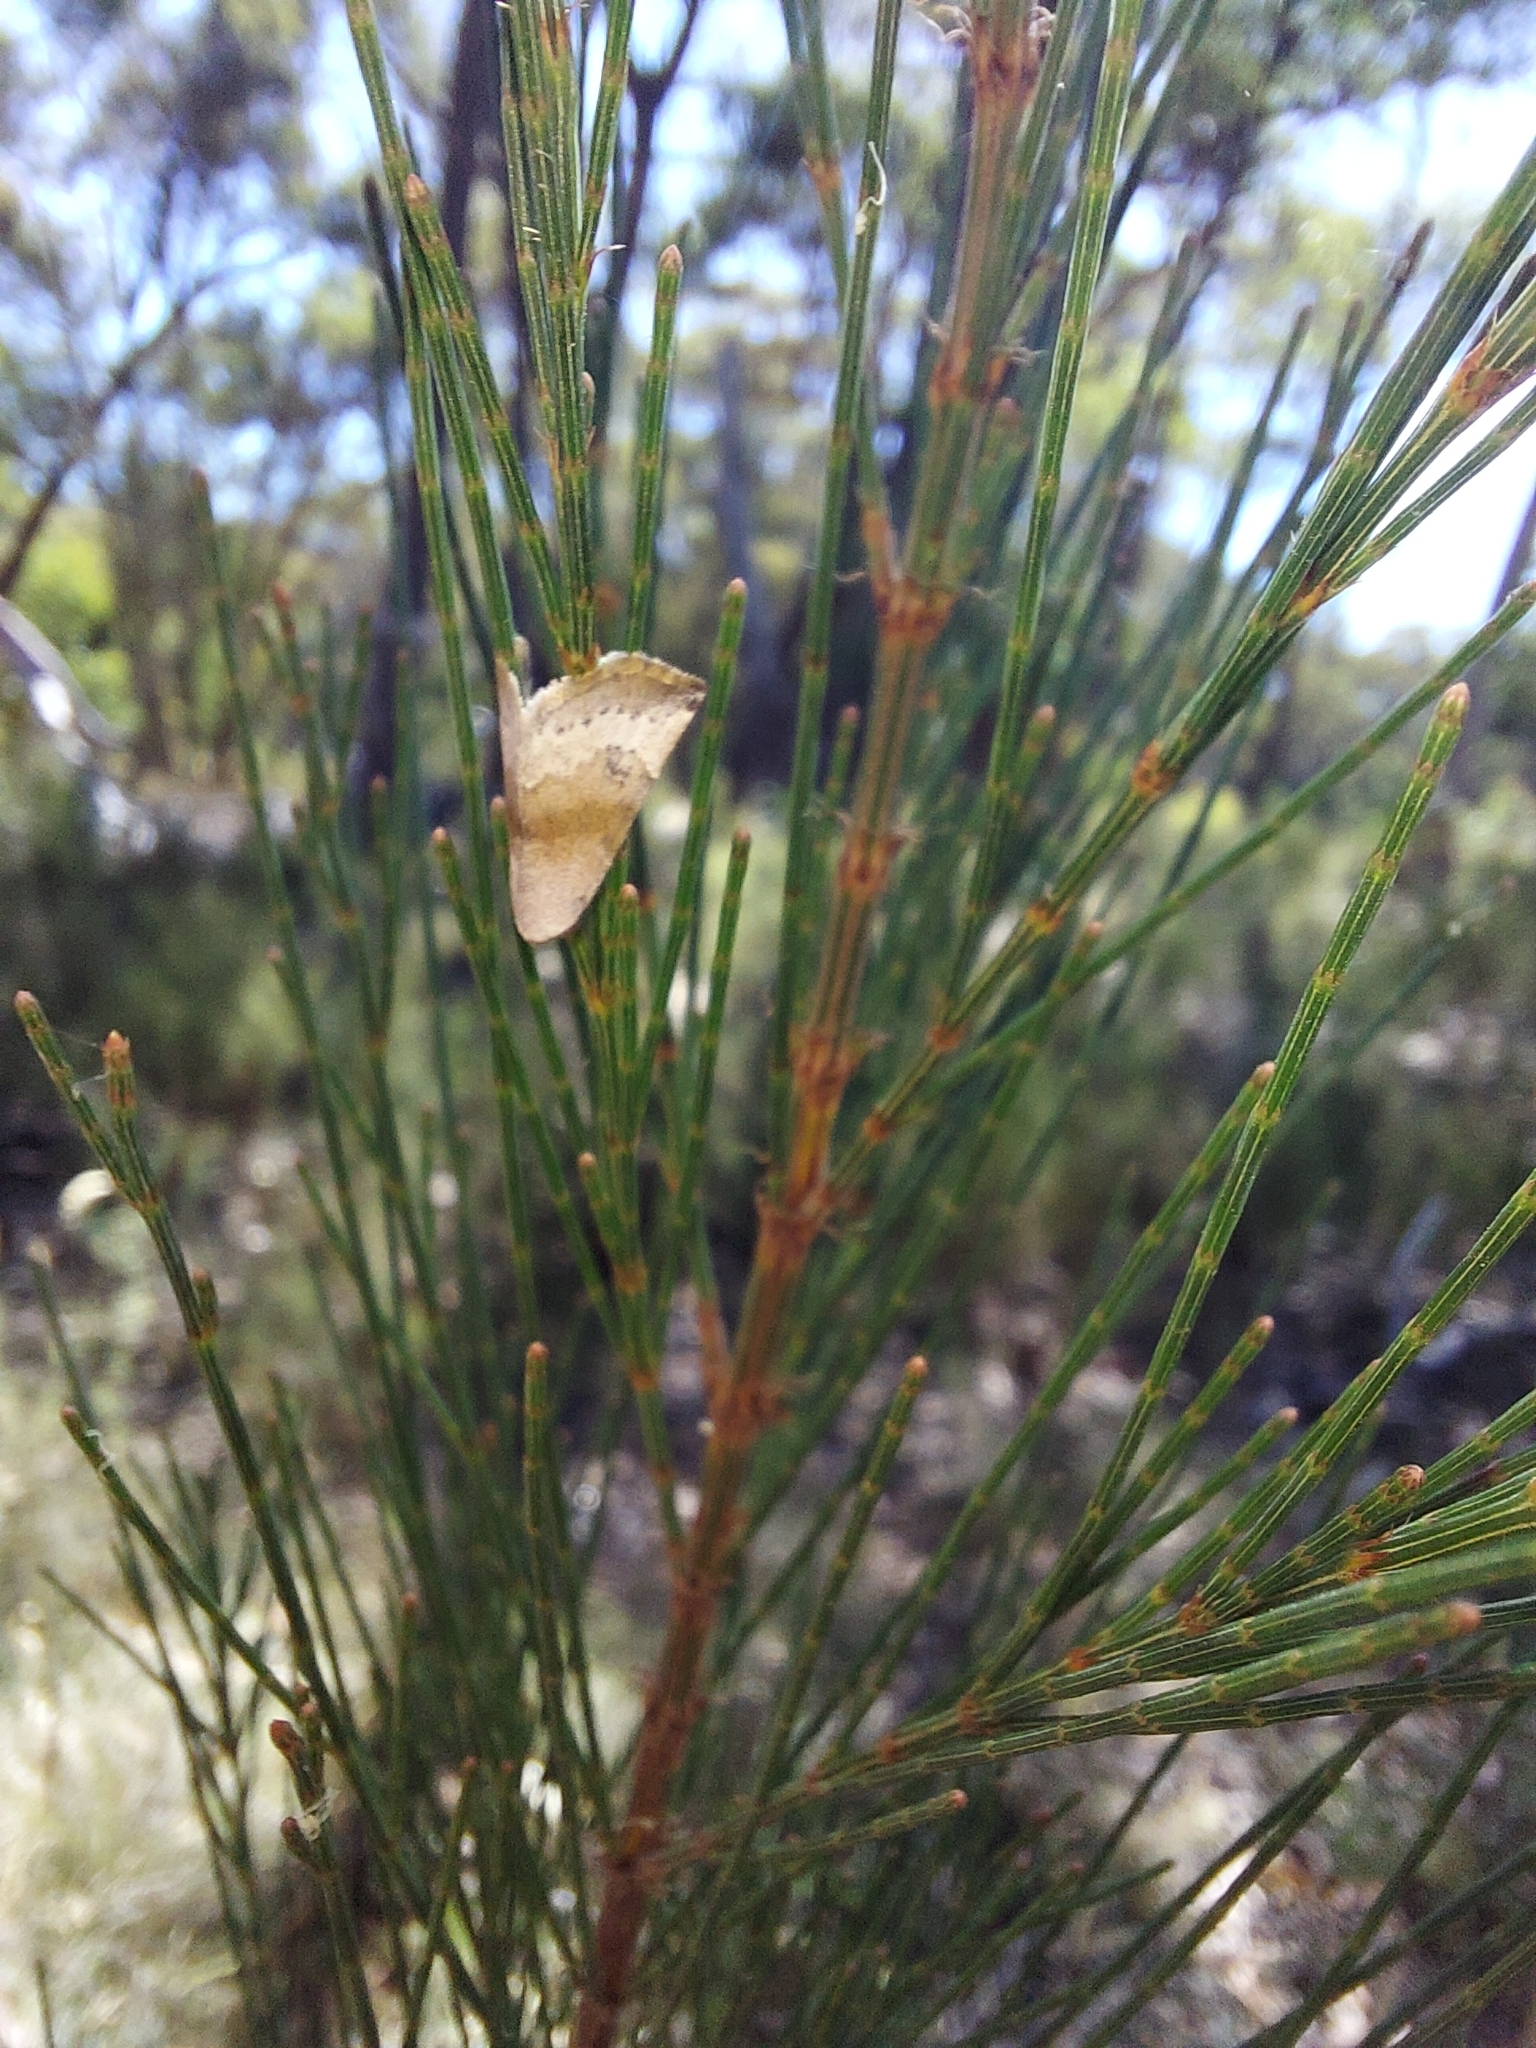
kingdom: Animalia
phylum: Arthropoda
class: Insecta
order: Lepidoptera
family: Noctuidae
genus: Mataeomera
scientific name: Mataeomera mesotaenia
